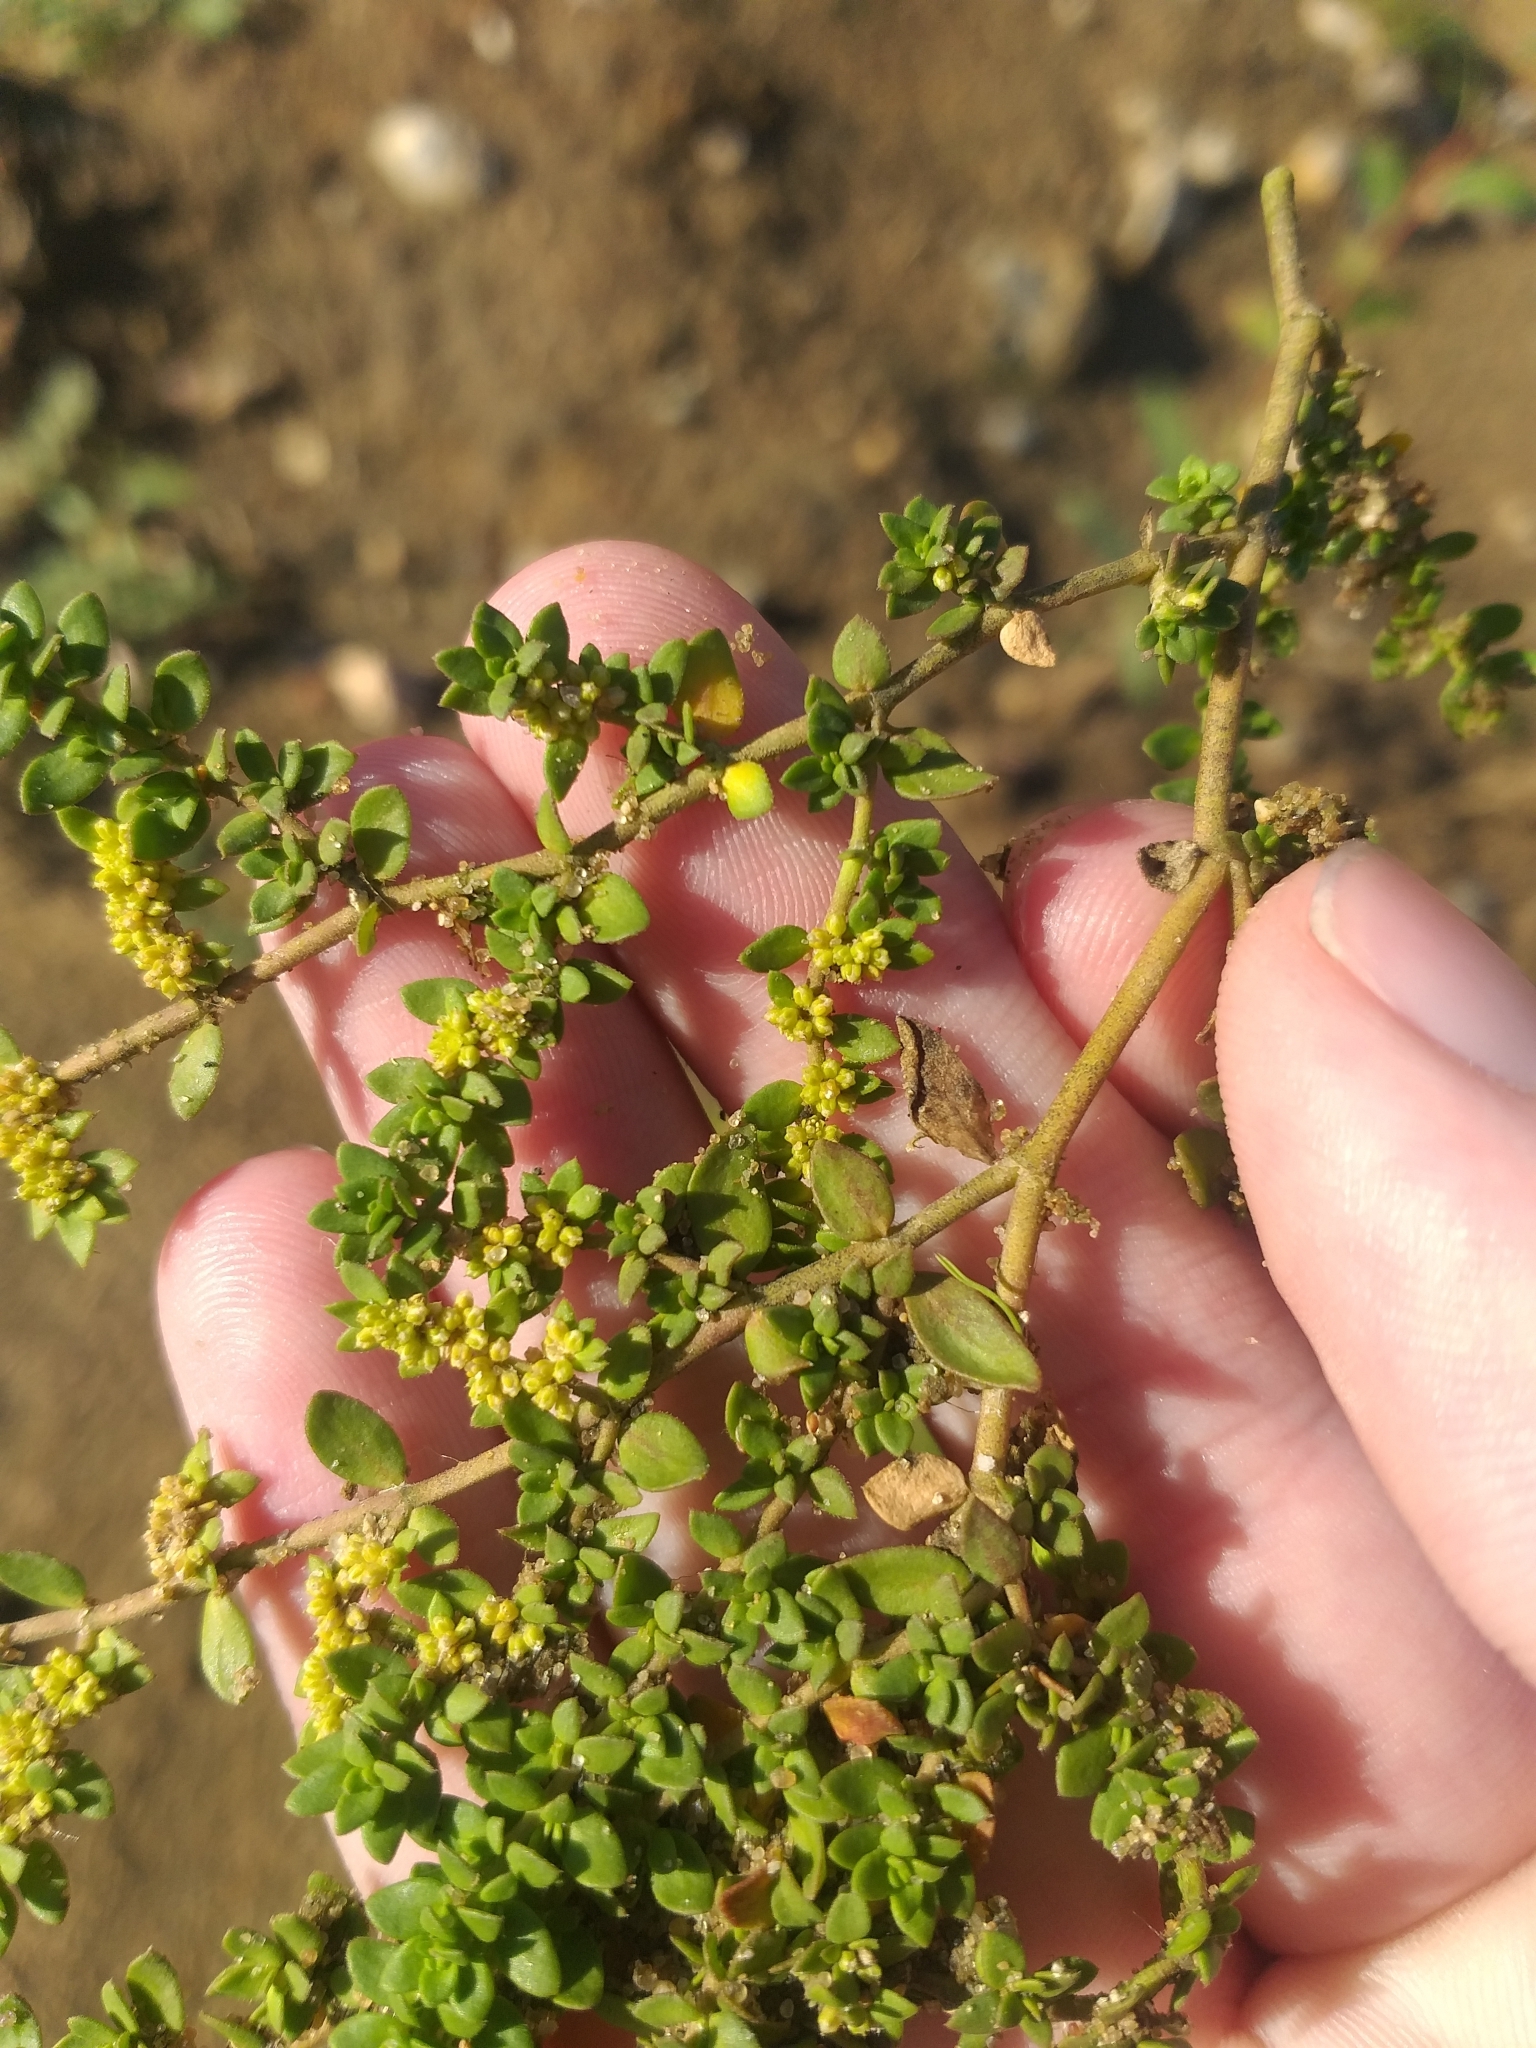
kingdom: Plantae
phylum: Tracheophyta
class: Magnoliopsida
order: Caryophyllales
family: Caryophyllaceae
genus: Herniaria
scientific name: Herniaria glabra
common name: Smooth rupturewort
